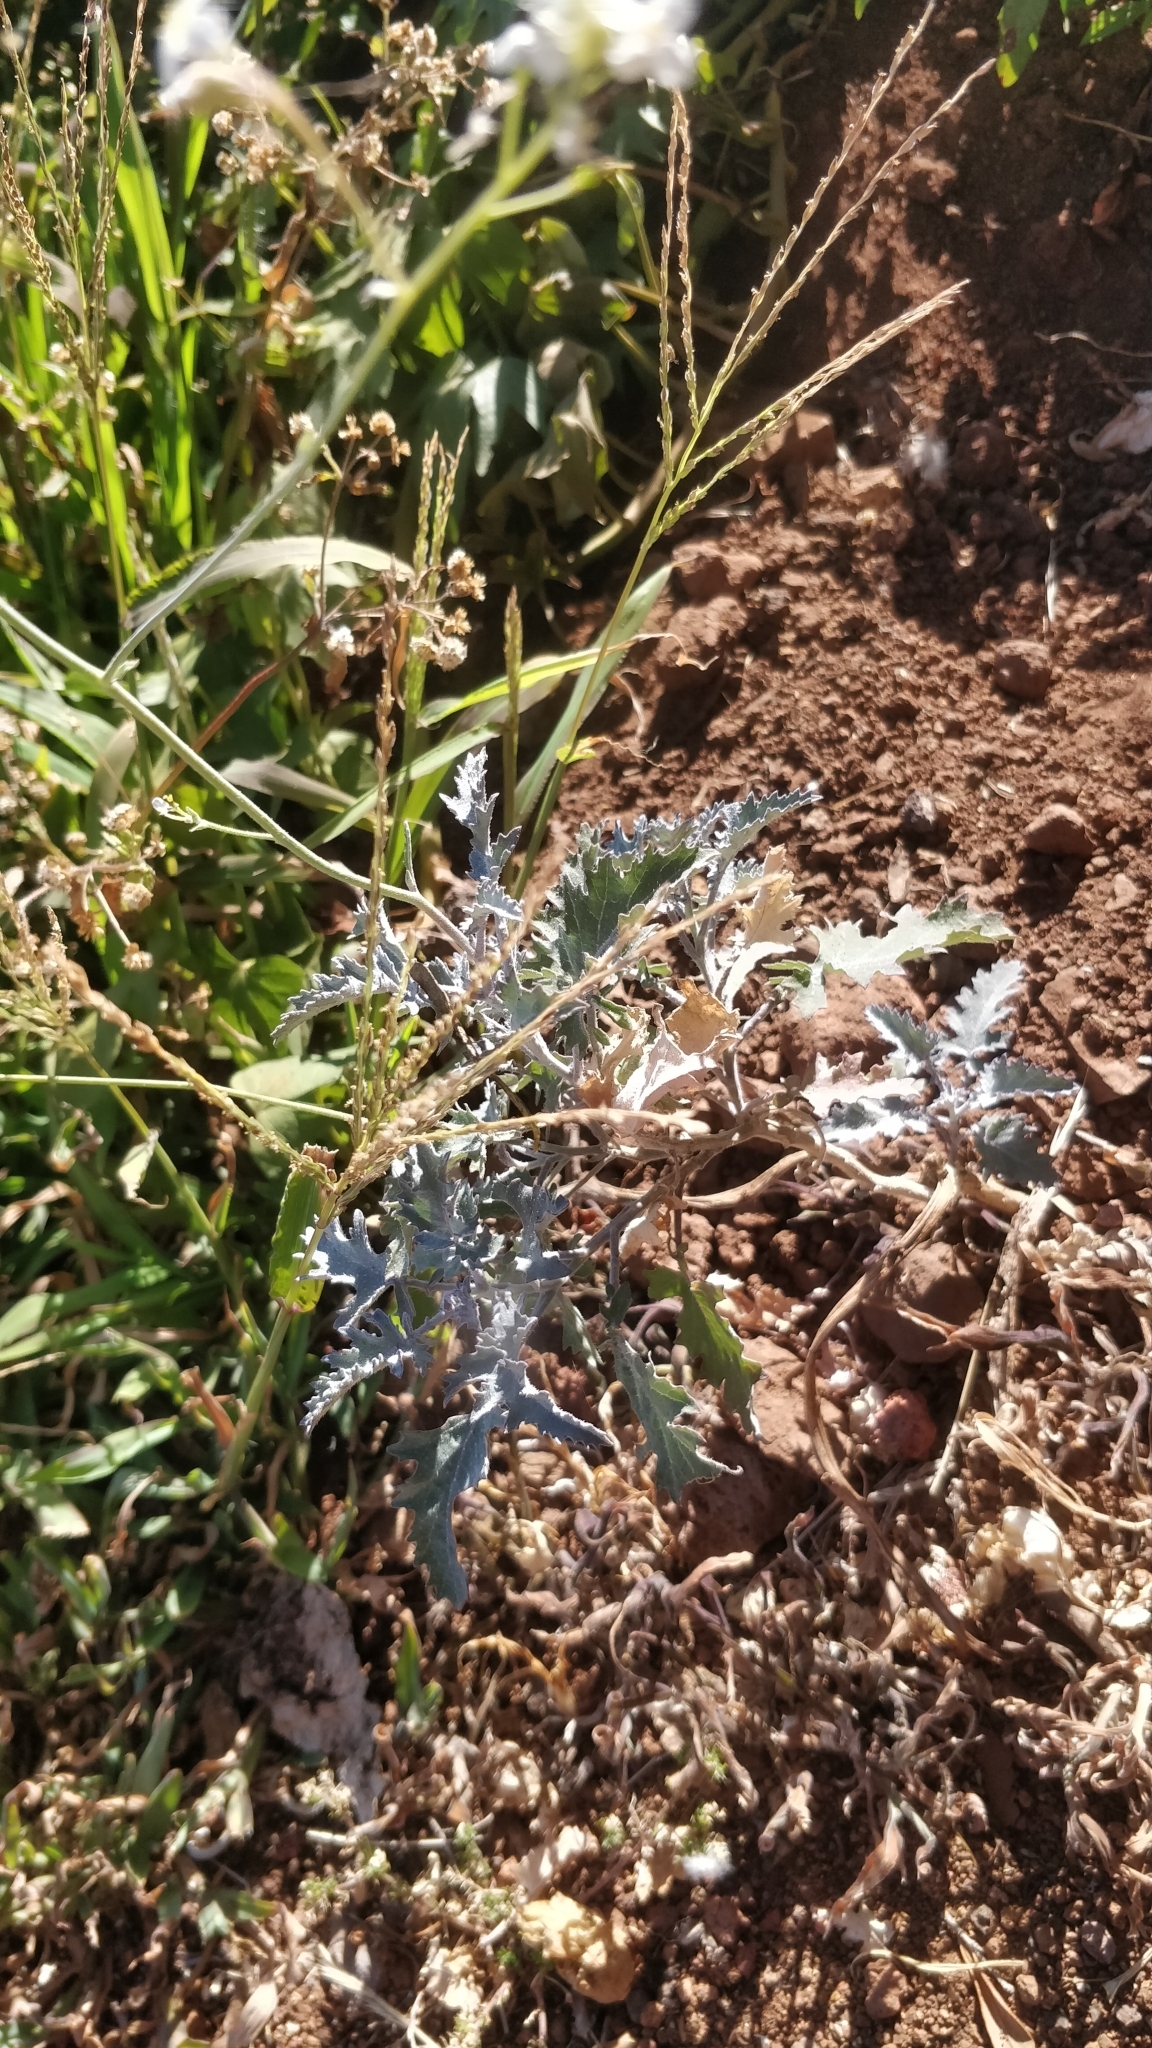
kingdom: Plantae
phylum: Tracheophyta
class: Magnoliopsida
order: Brassicales
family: Brassicaceae
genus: Crambe
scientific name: Crambe fruticosa
